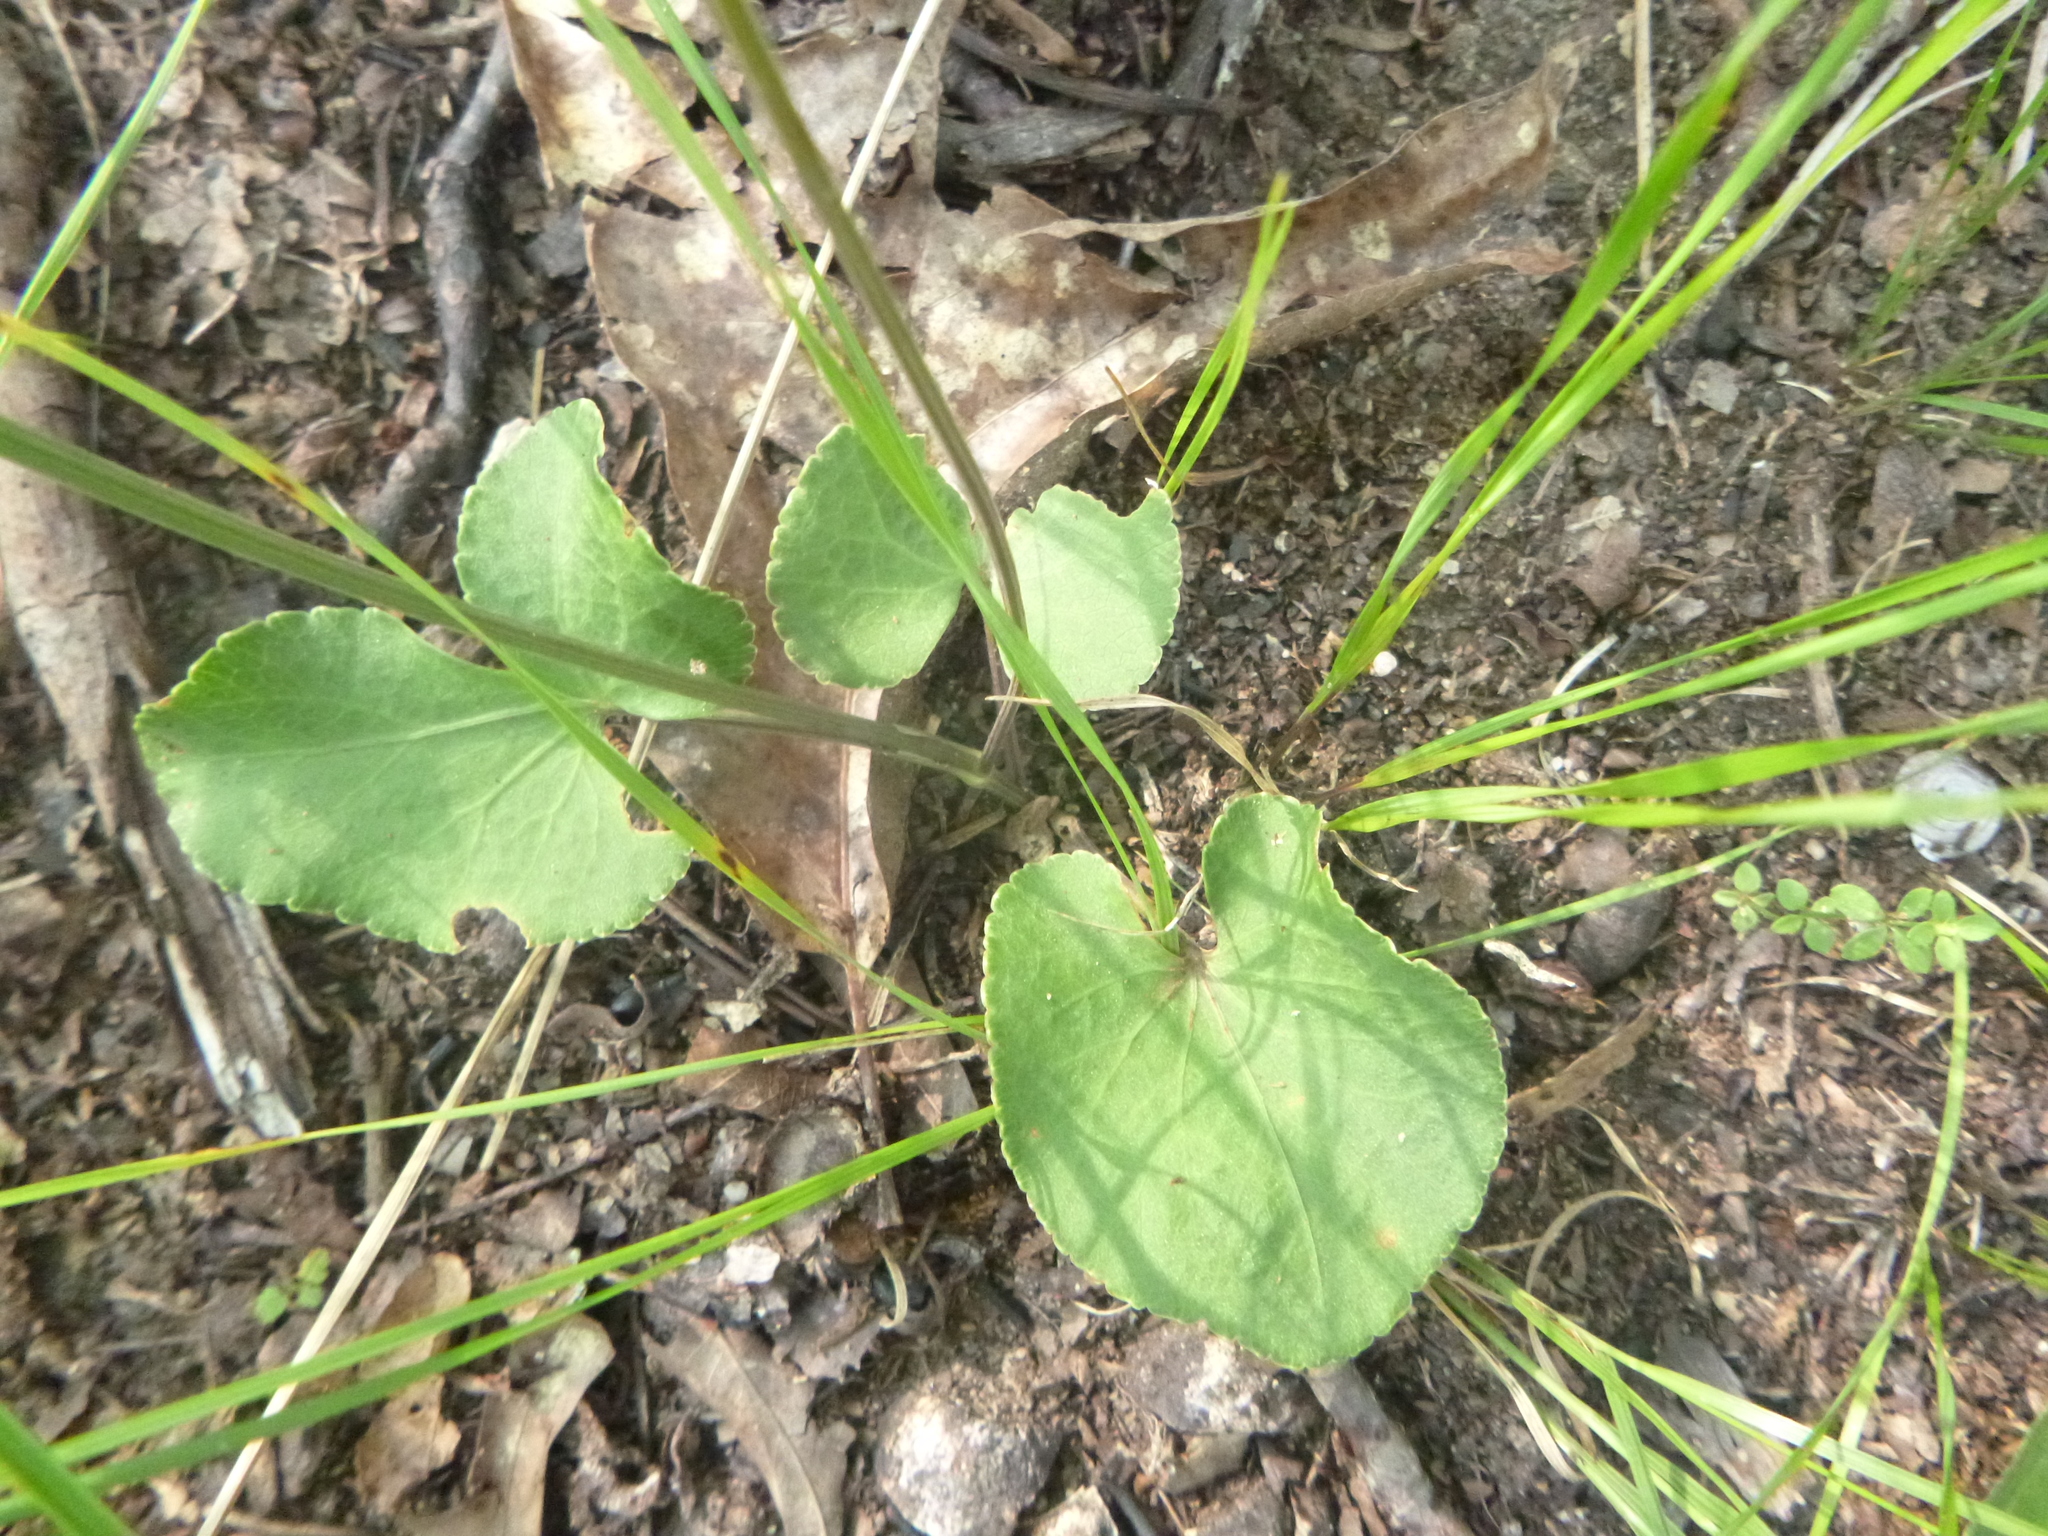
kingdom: Plantae
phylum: Tracheophyta
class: Magnoliopsida
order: Apiales
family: Apiaceae
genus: Thaspium
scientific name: Thaspium trifoliatum
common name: Purple meadow-parsnip
